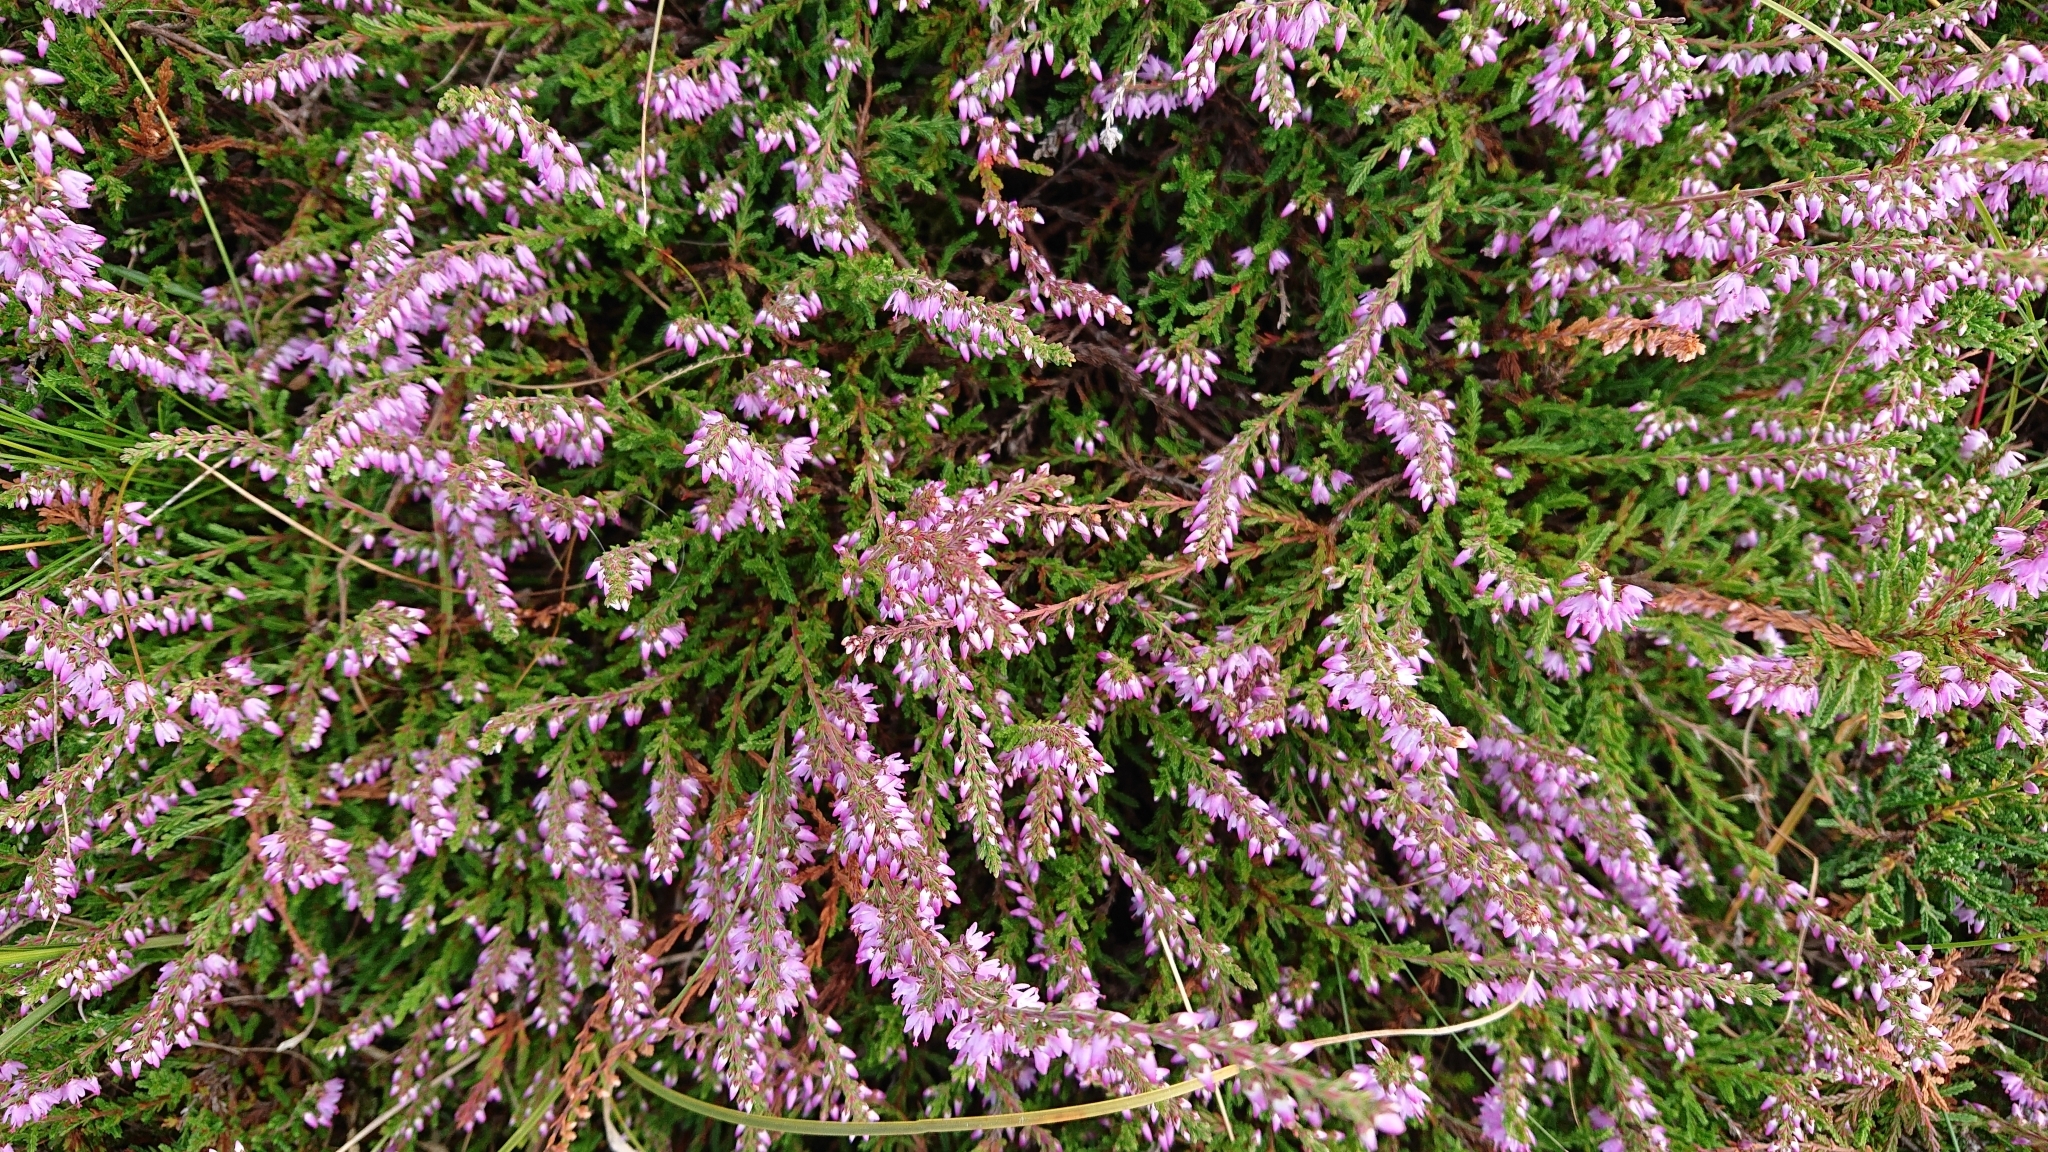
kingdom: Plantae
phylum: Tracheophyta
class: Magnoliopsida
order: Ericales
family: Ericaceae
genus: Calluna
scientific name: Calluna vulgaris
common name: Heather
